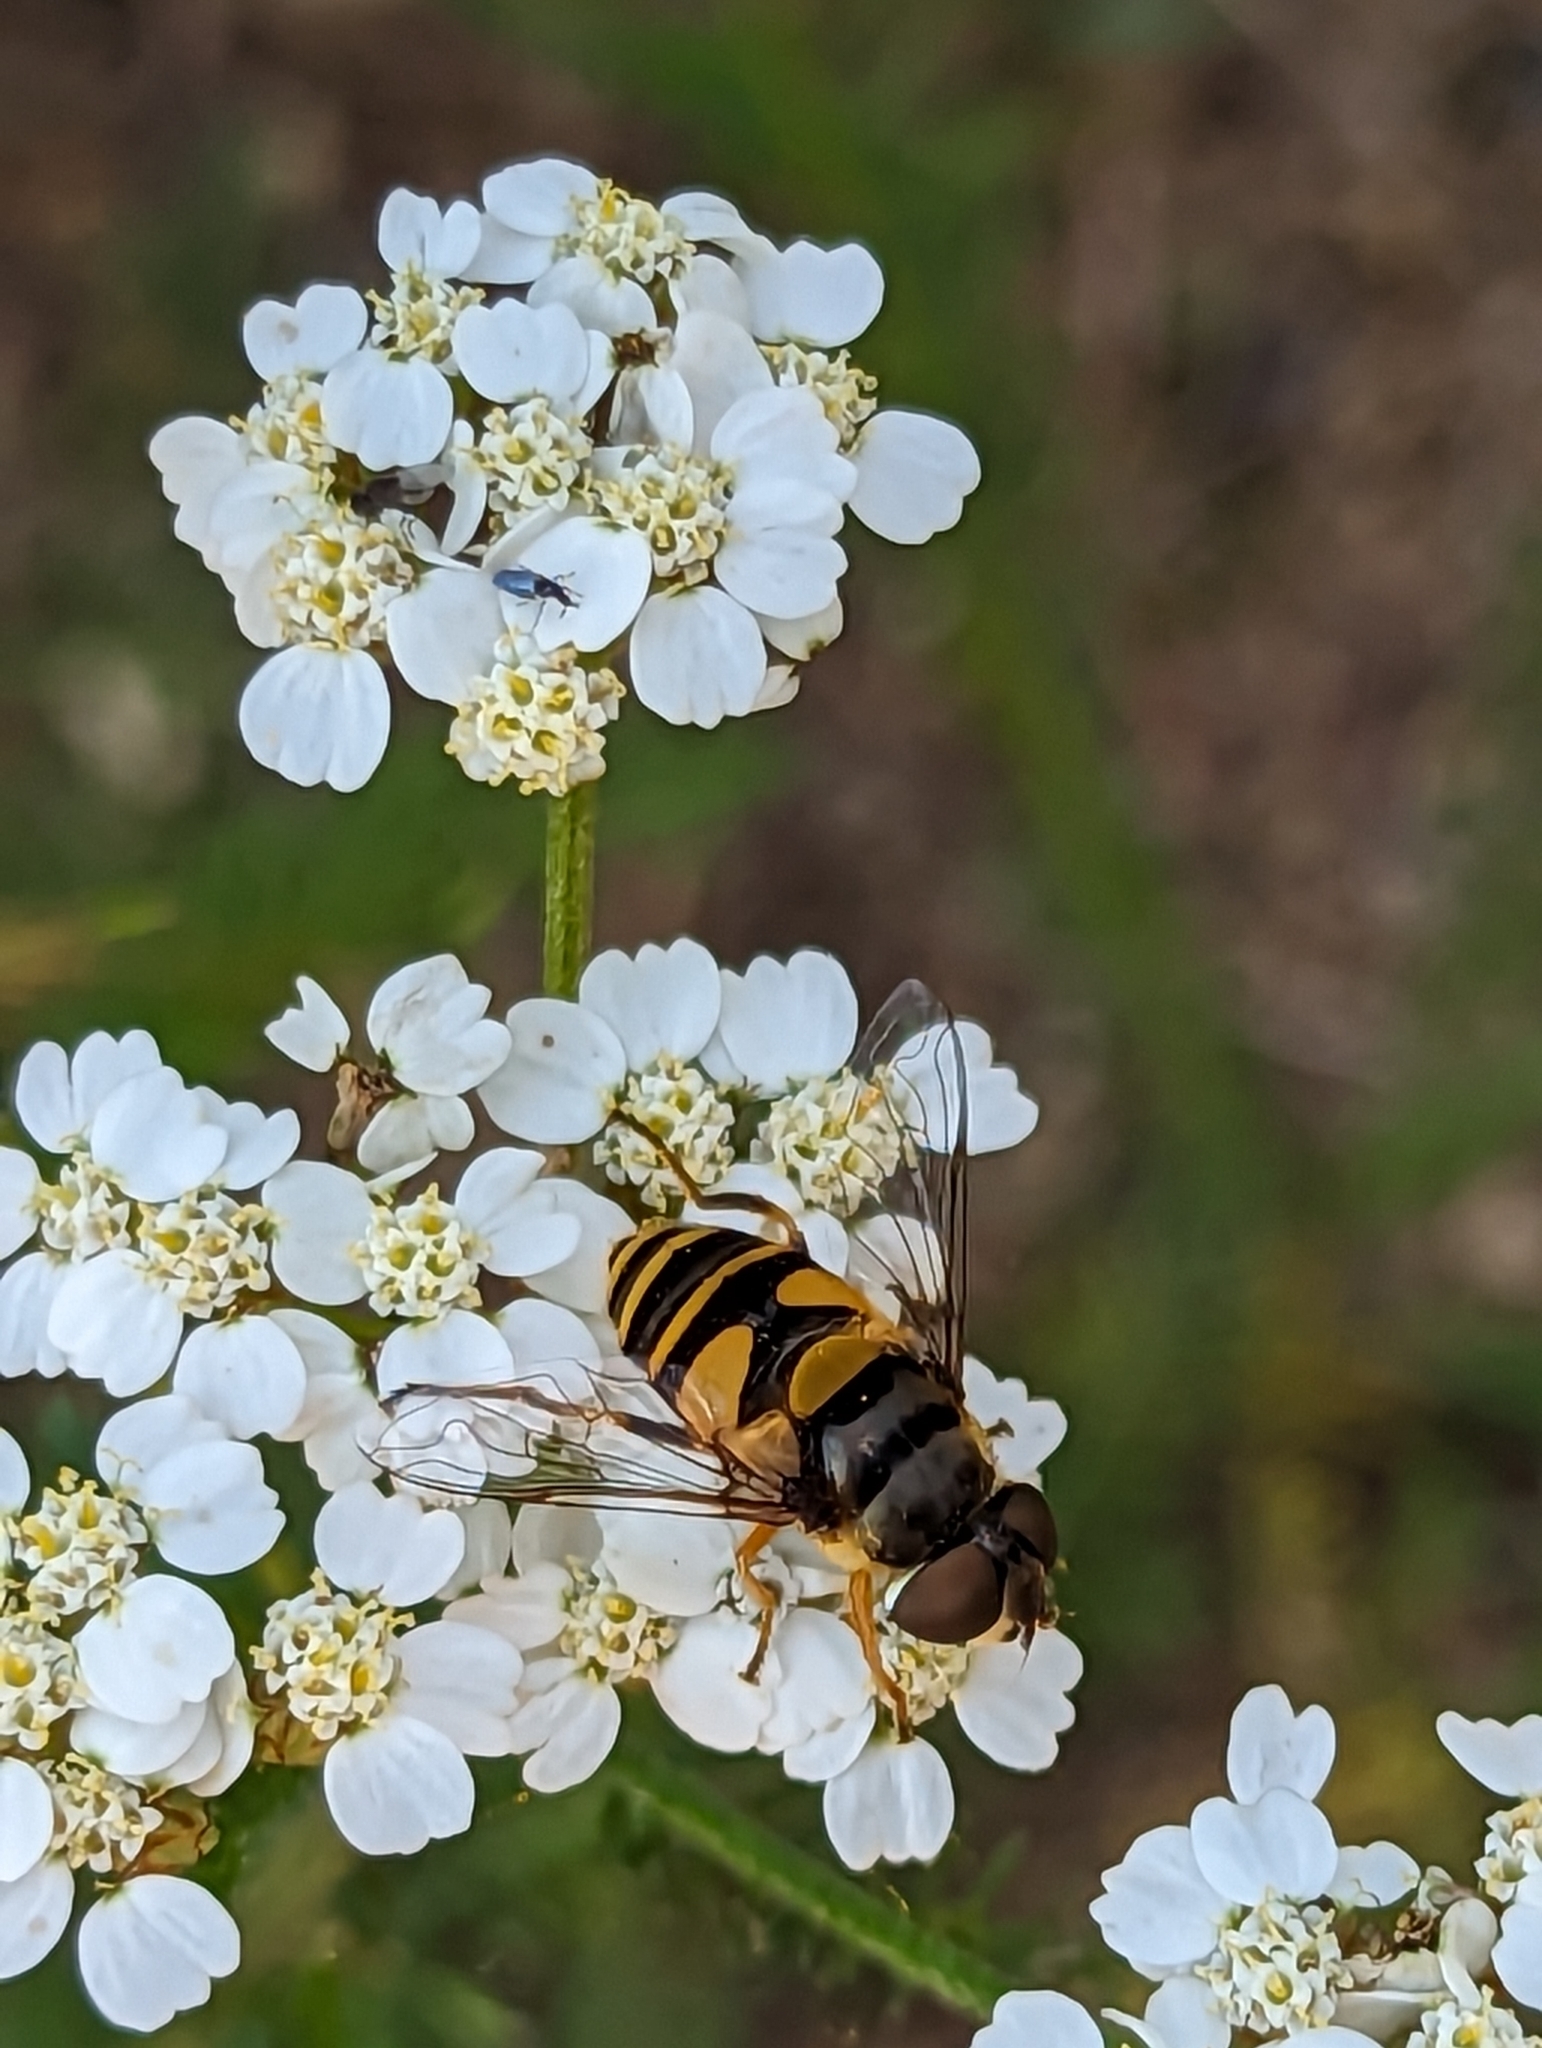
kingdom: Animalia
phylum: Arthropoda
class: Insecta
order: Diptera
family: Syrphidae
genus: Eristalis
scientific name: Eristalis transversa
